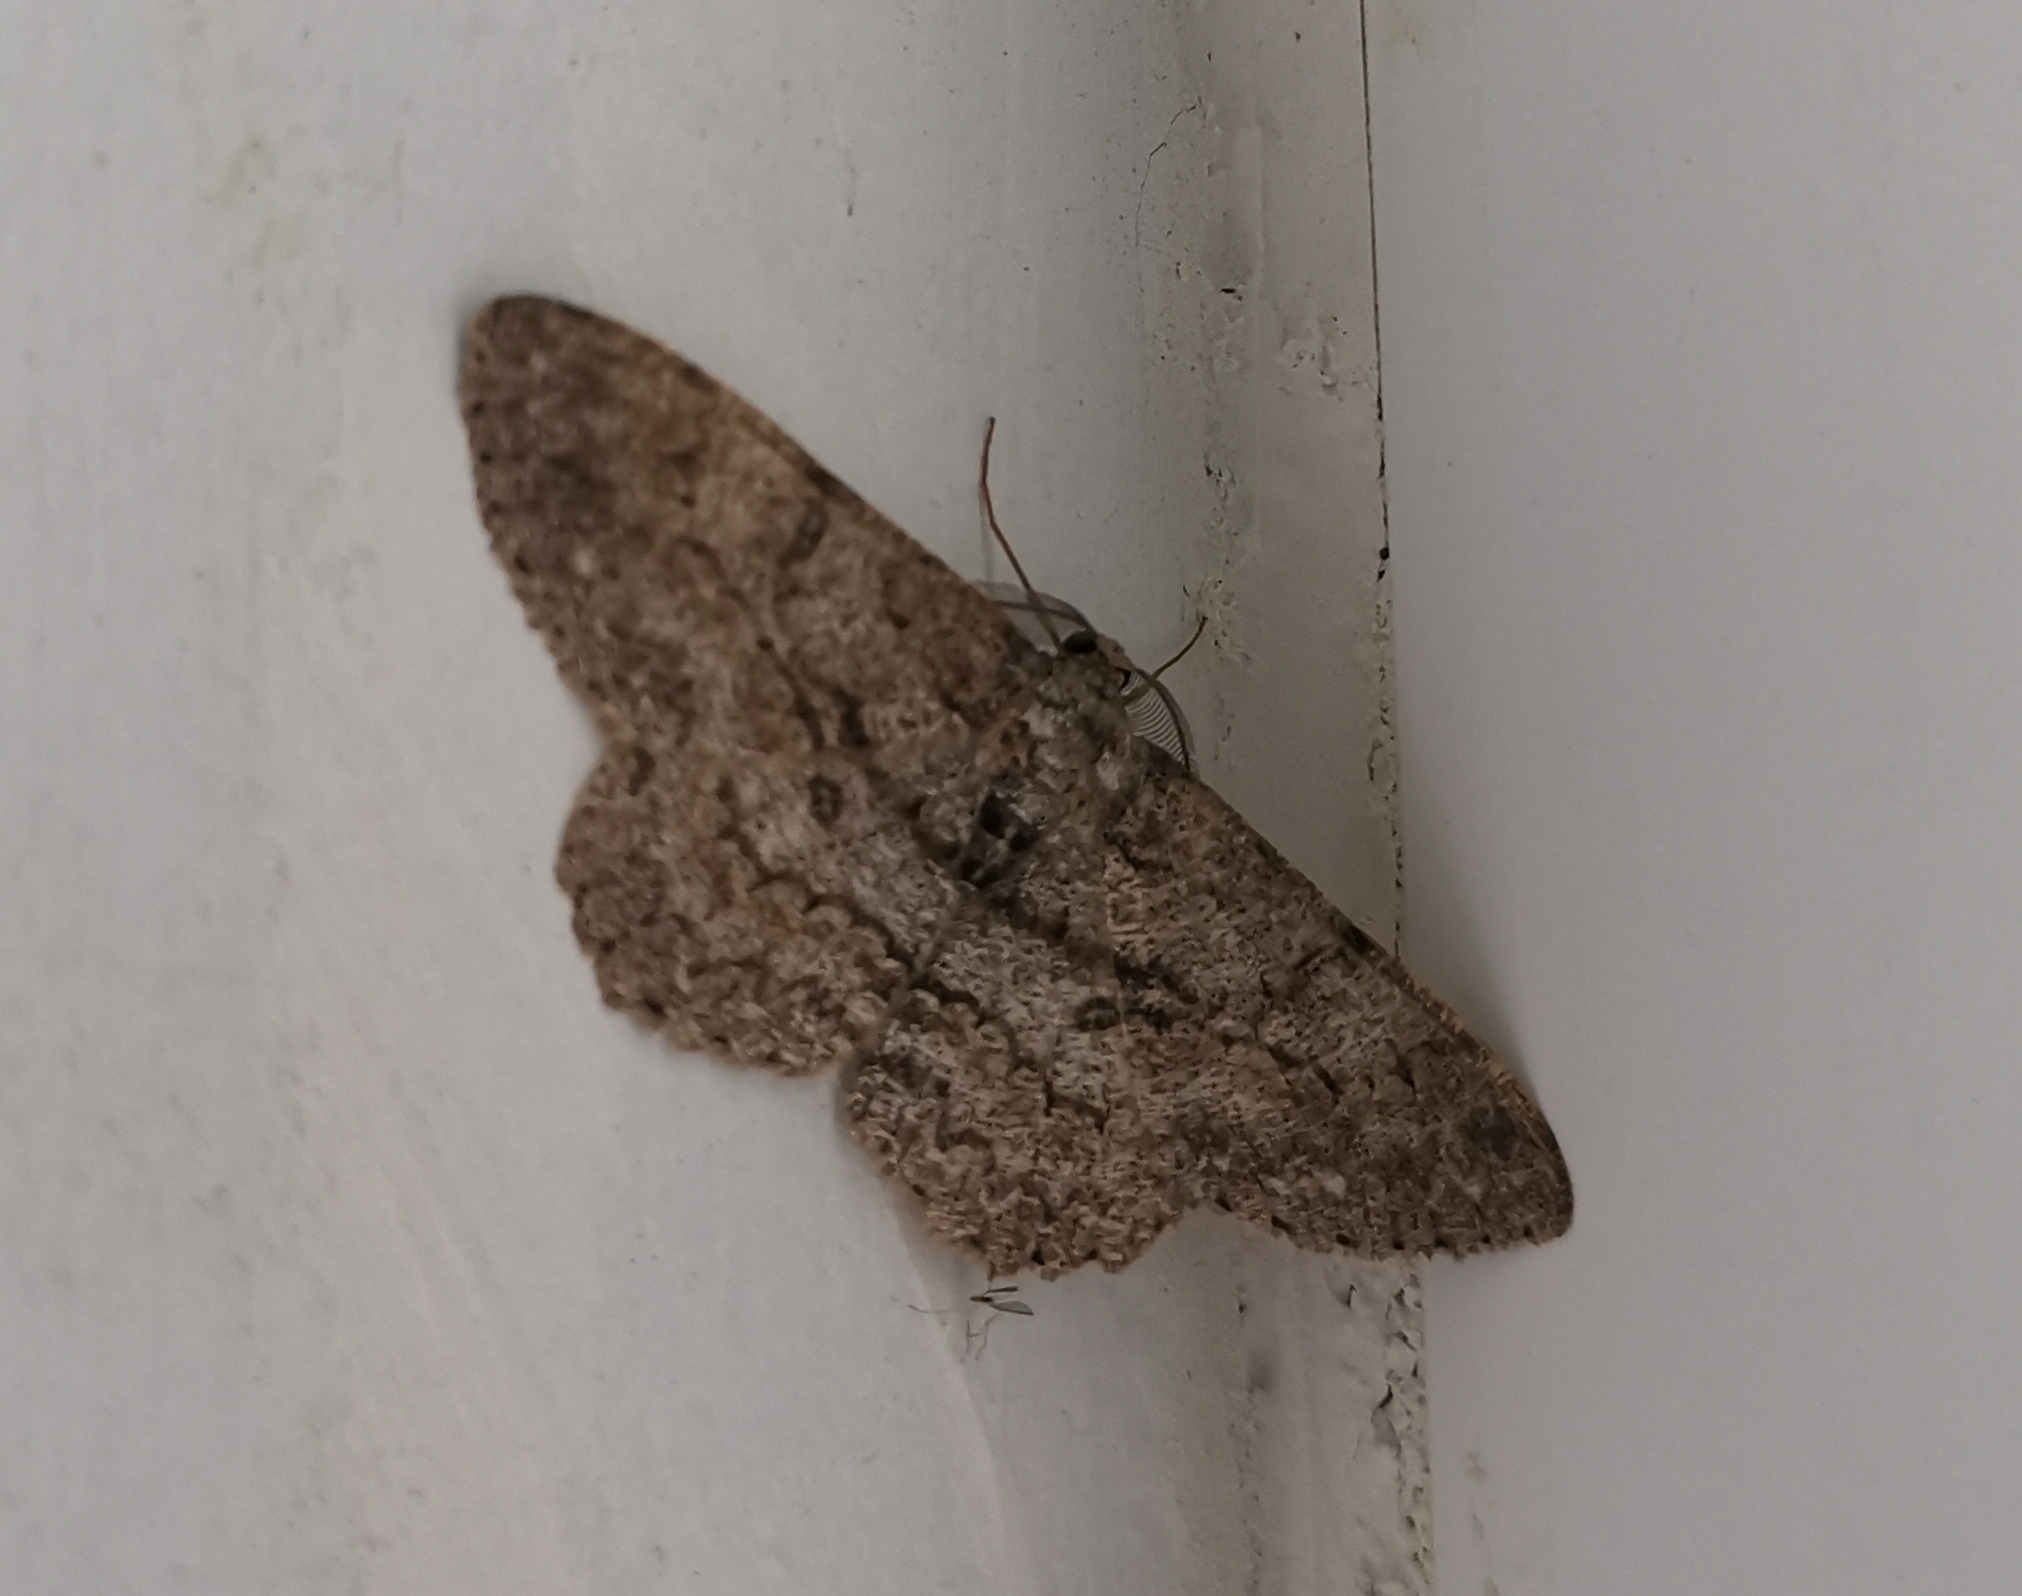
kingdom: Animalia
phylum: Arthropoda
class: Insecta
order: Lepidoptera
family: Geometridae
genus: Hypomecis
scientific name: Hypomecis punctinalis
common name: Pale oak beauty
